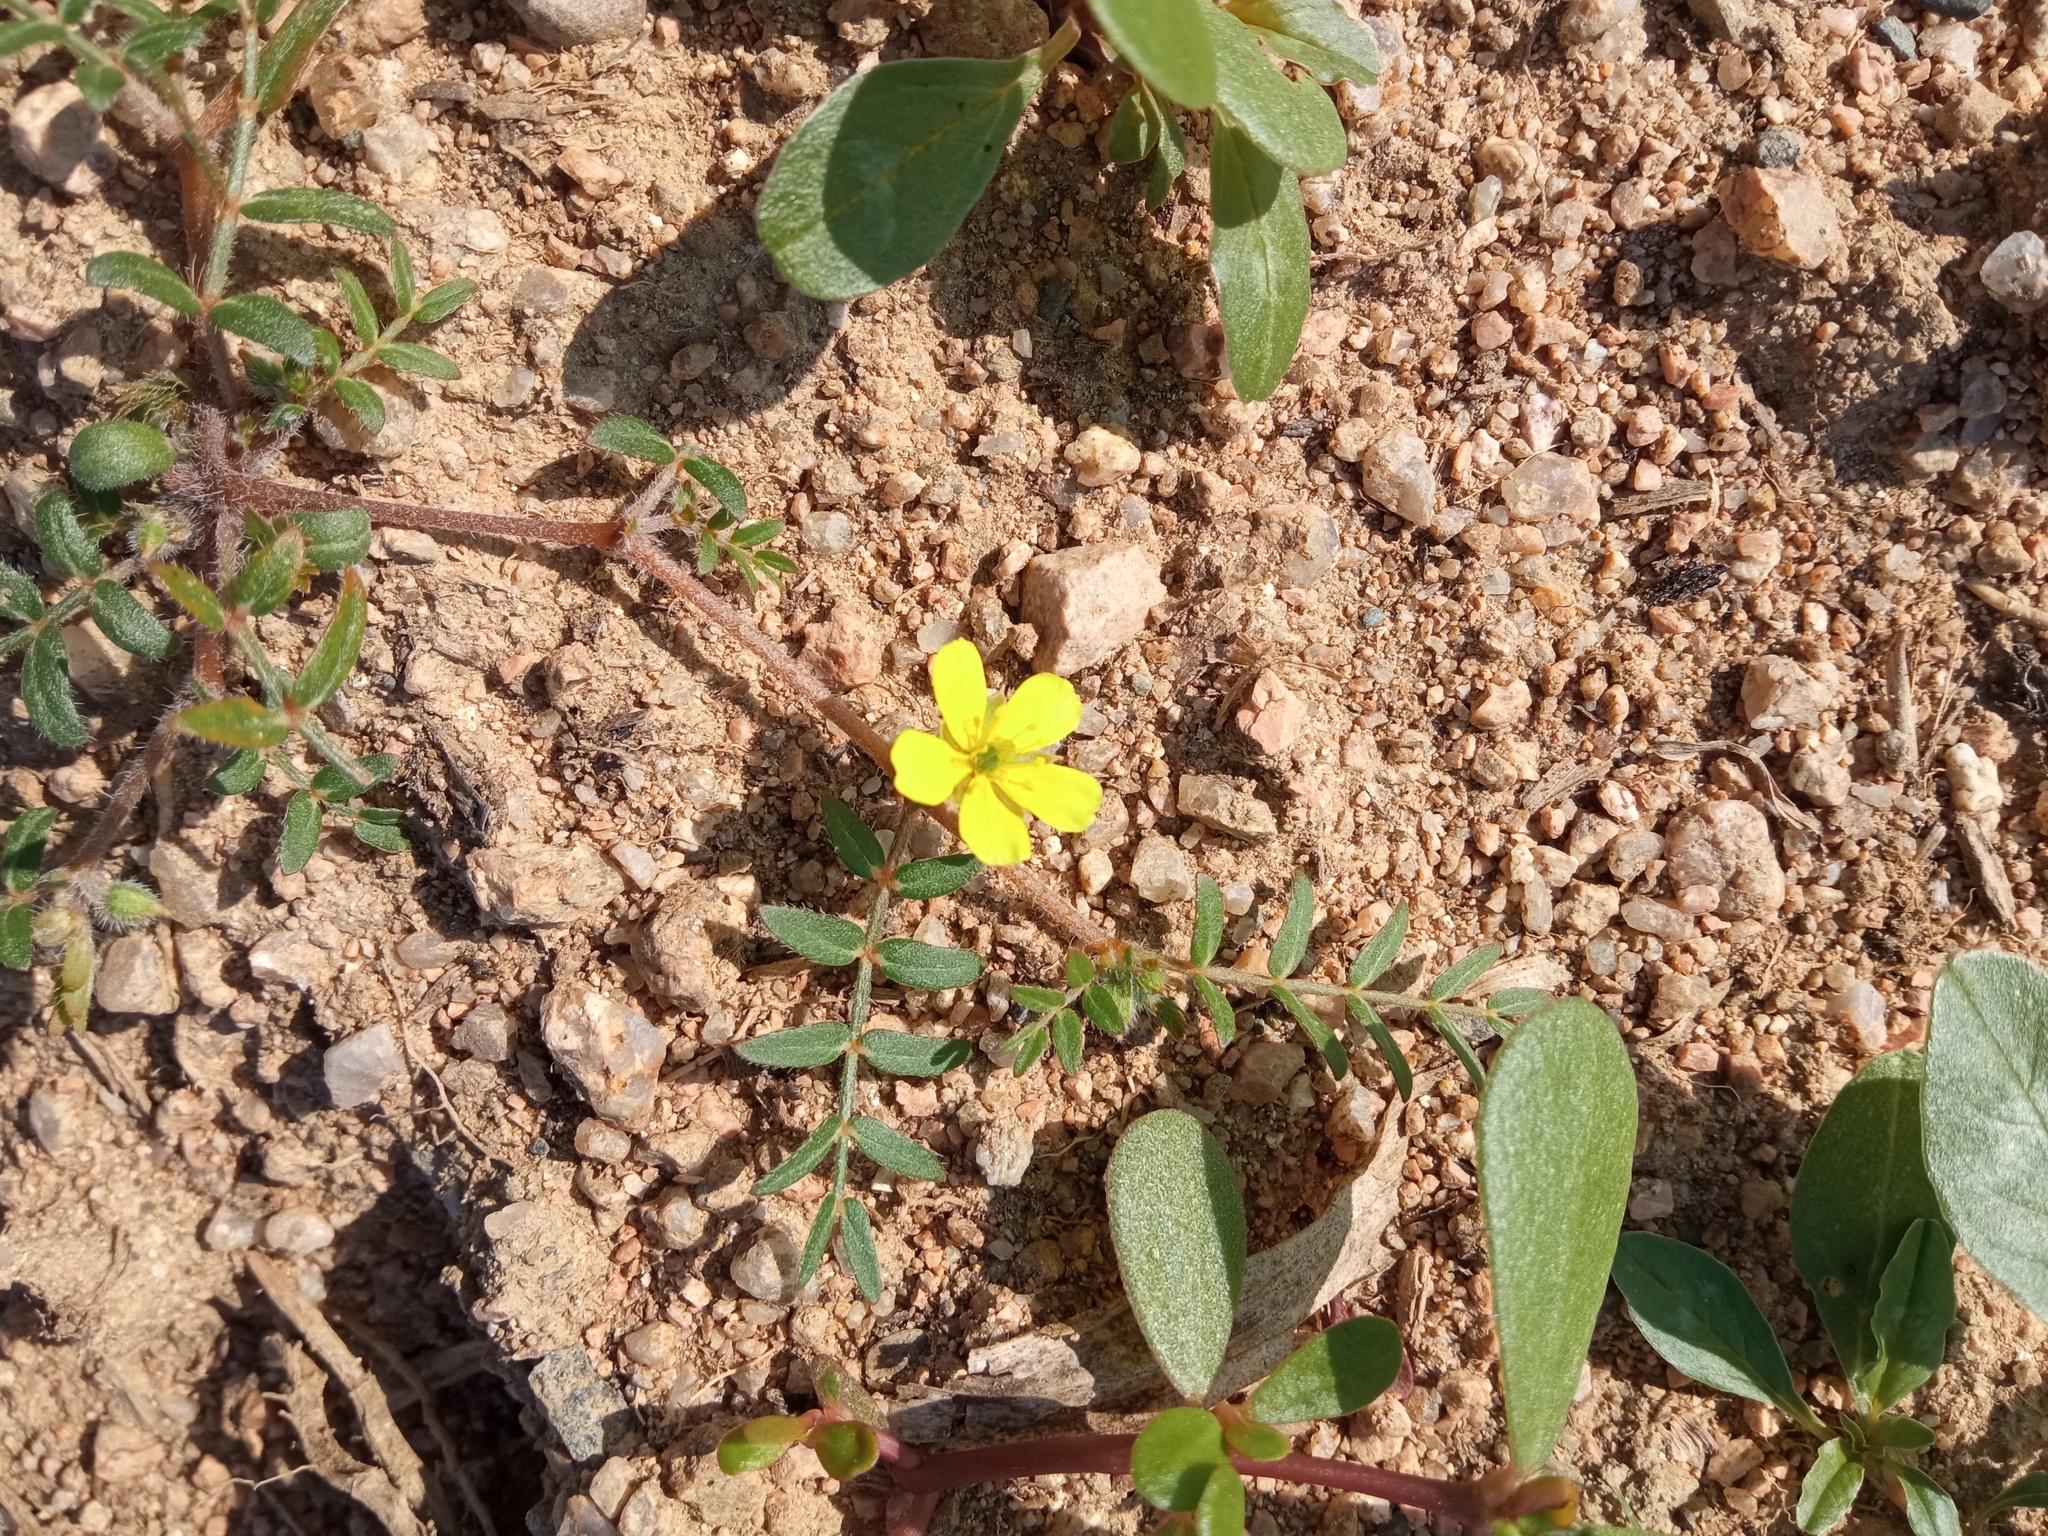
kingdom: Plantae
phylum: Tracheophyta
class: Magnoliopsida
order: Zygophyllales
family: Zygophyllaceae
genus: Tribulus
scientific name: Tribulus terrestris
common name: Puncturevine
